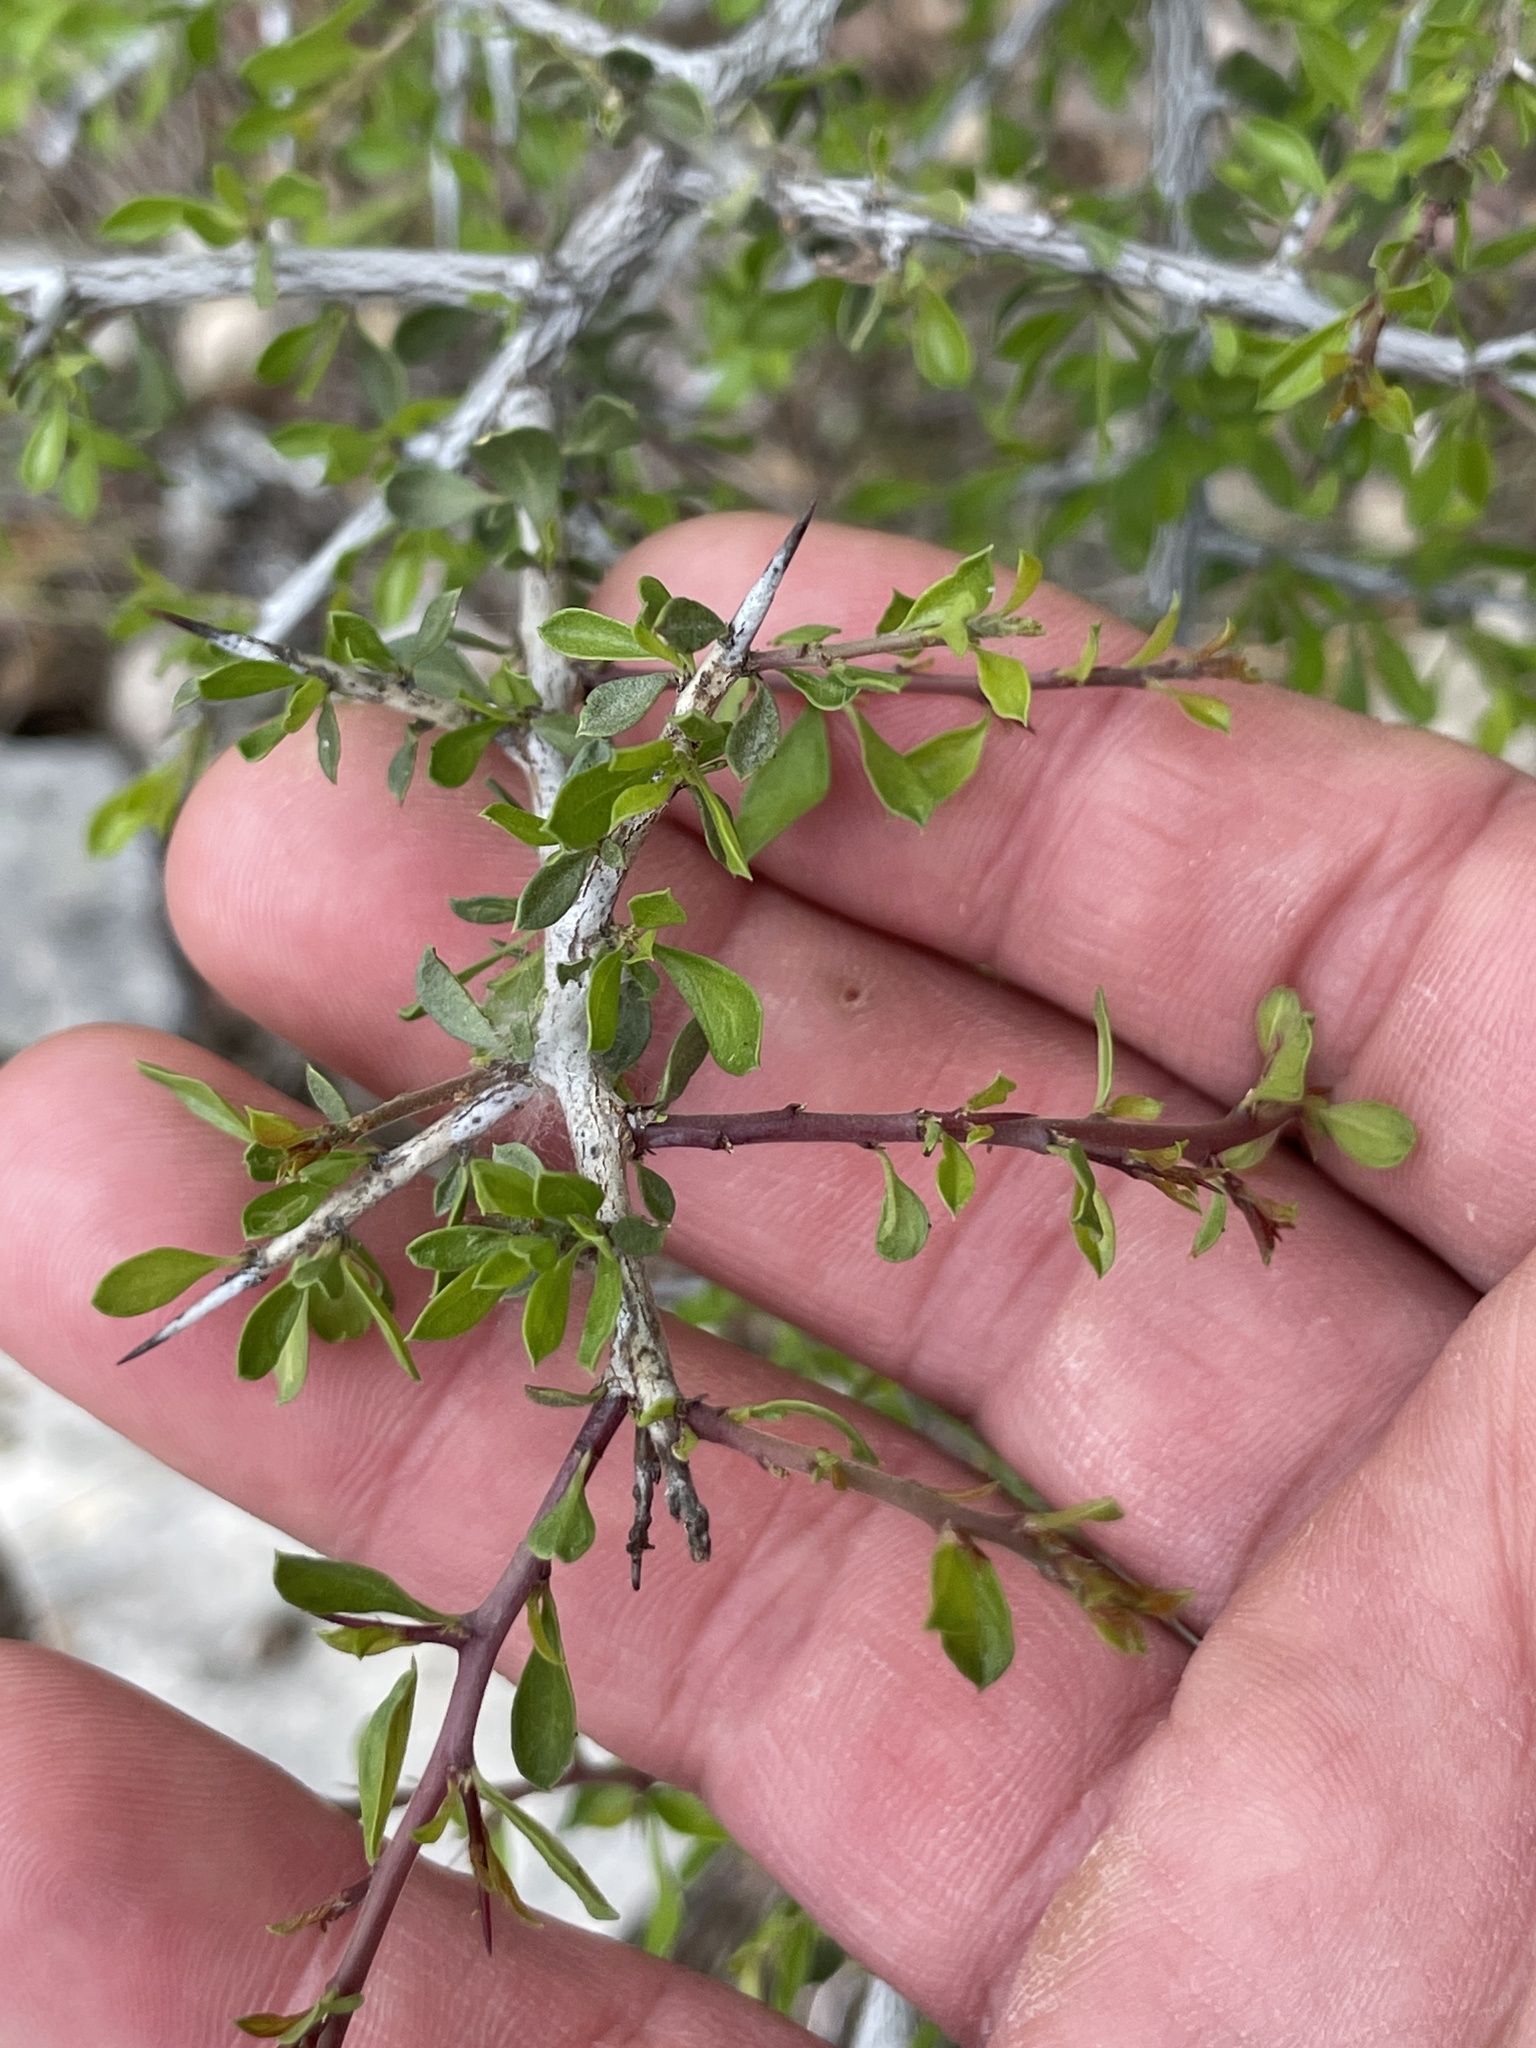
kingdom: Plantae
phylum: Tracheophyta
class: Magnoliopsida
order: Rosales
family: Rhamnaceae
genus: Condalia
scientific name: Condalia viridis
